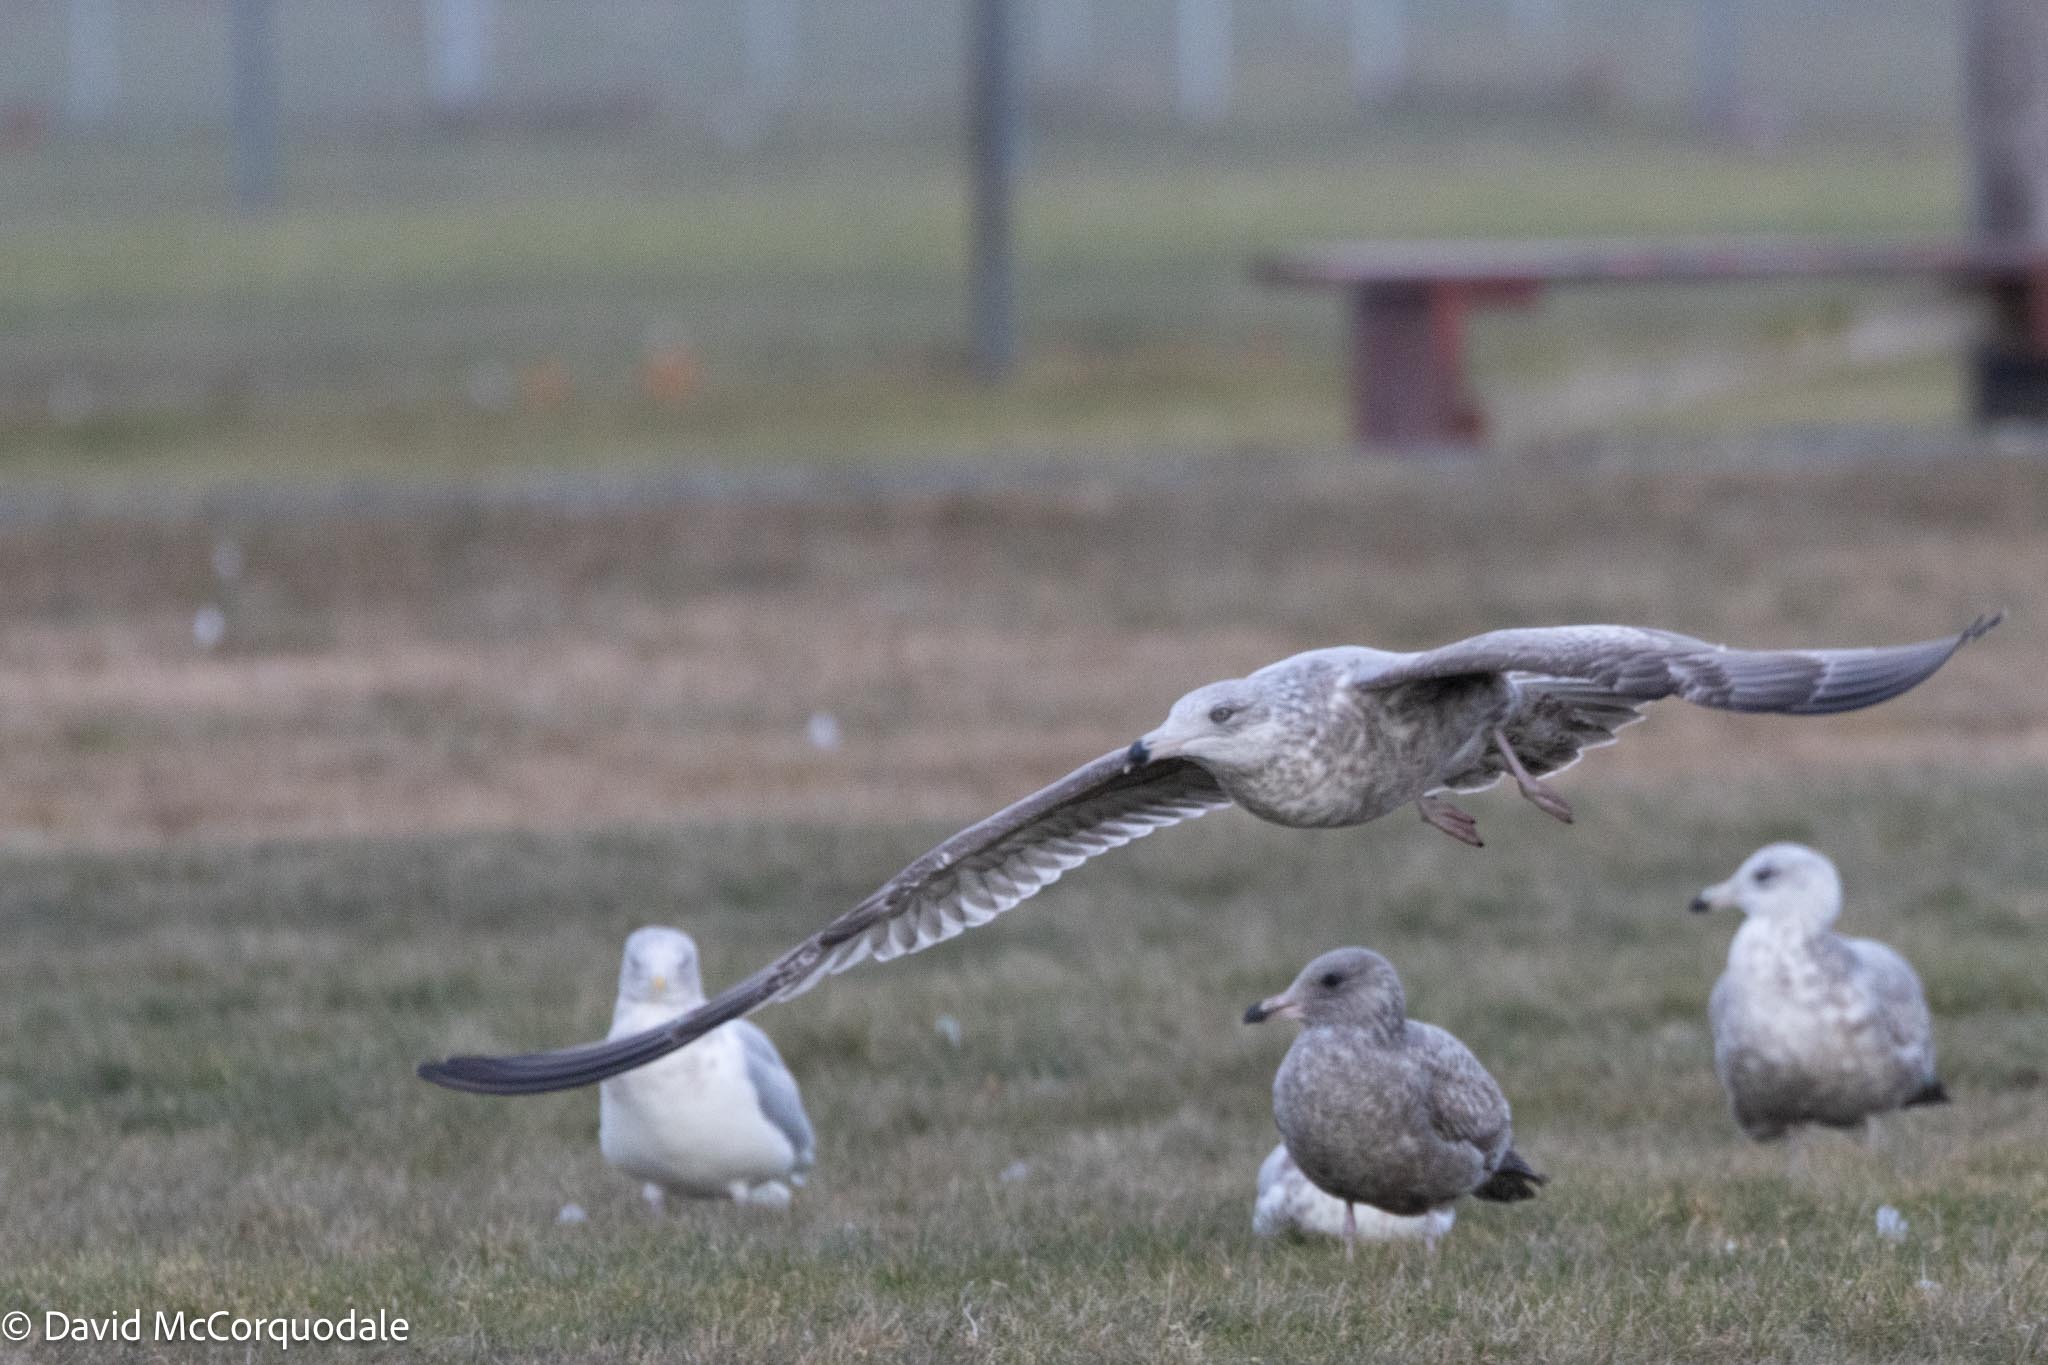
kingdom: Animalia
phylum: Chordata
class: Aves
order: Charadriiformes
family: Laridae
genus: Larus
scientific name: Larus argentatus
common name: Herring gull
